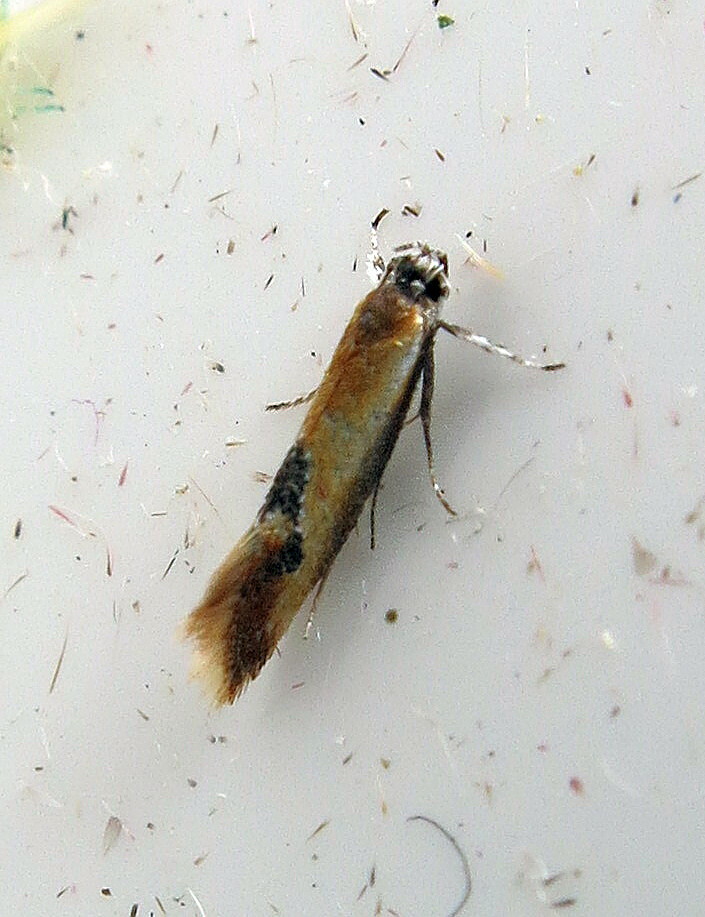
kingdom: Animalia
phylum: Arthropoda
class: Insecta
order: Lepidoptera
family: Oecophoridae
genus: Batia
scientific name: Batia lunaris
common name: Moth
